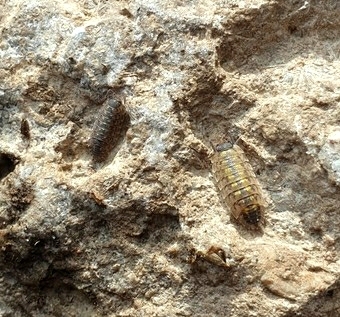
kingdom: Animalia
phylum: Arthropoda
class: Malacostraca
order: Isopoda
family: Porcellionidae
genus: Porcellio
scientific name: Porcellio spinicornis
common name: Painted woodlouse
